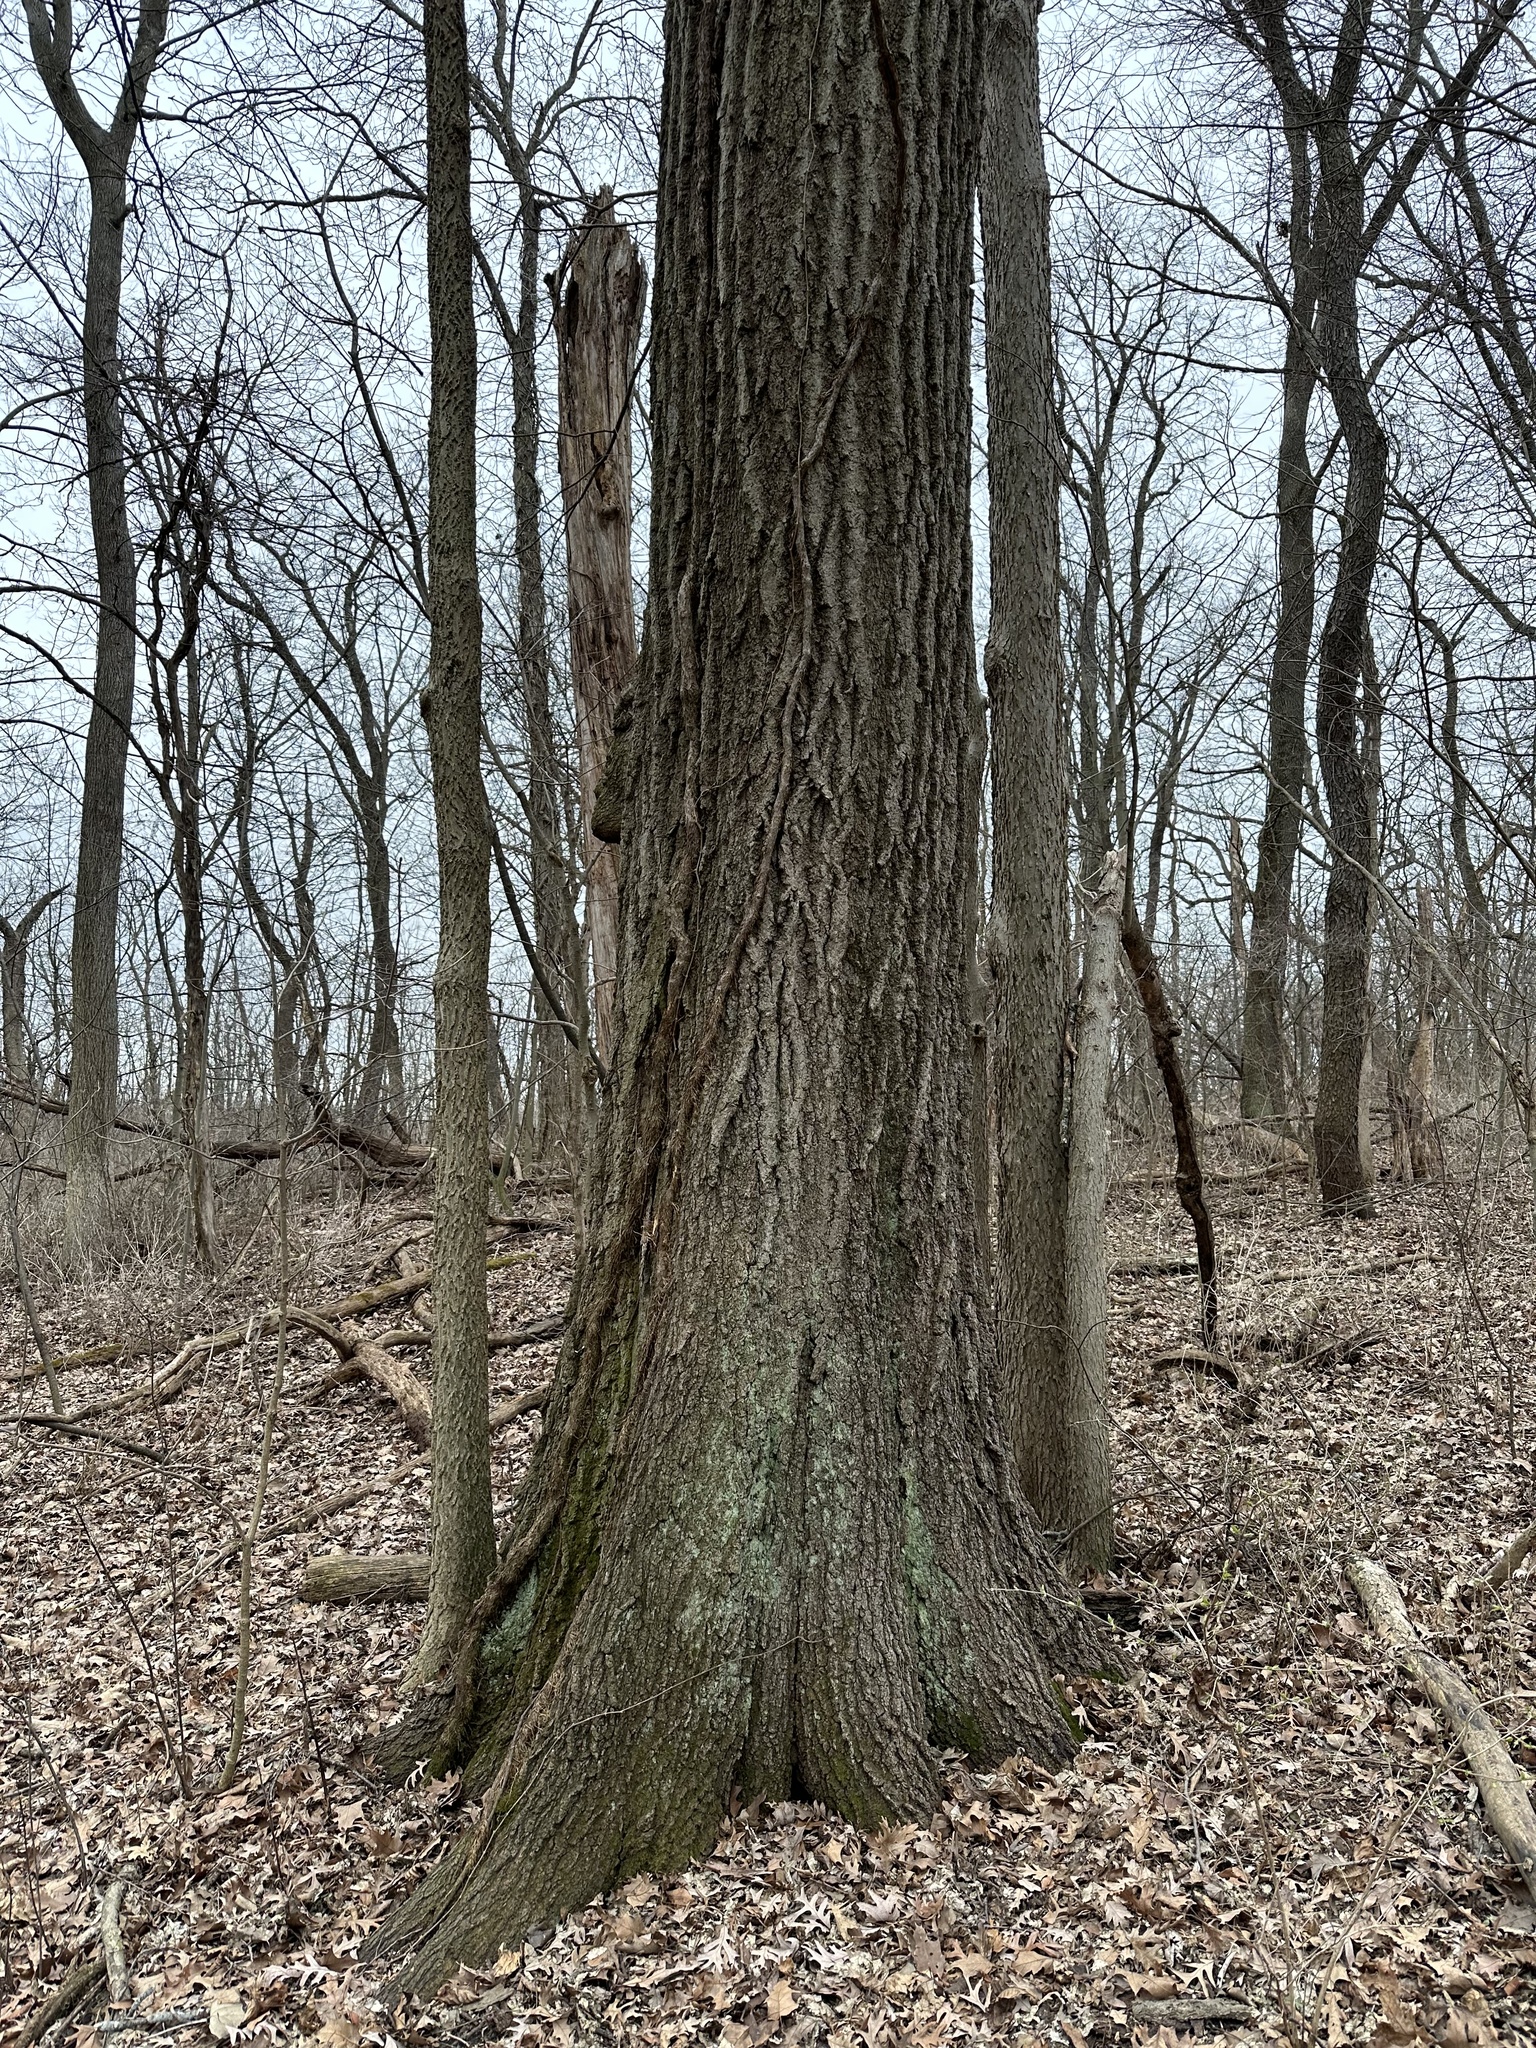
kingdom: Plantae
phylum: Tracheophyta
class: Magnoliopsida
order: Fagales
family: Fagaceae
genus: Quercus
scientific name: Quercus rubra
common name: Red oak
